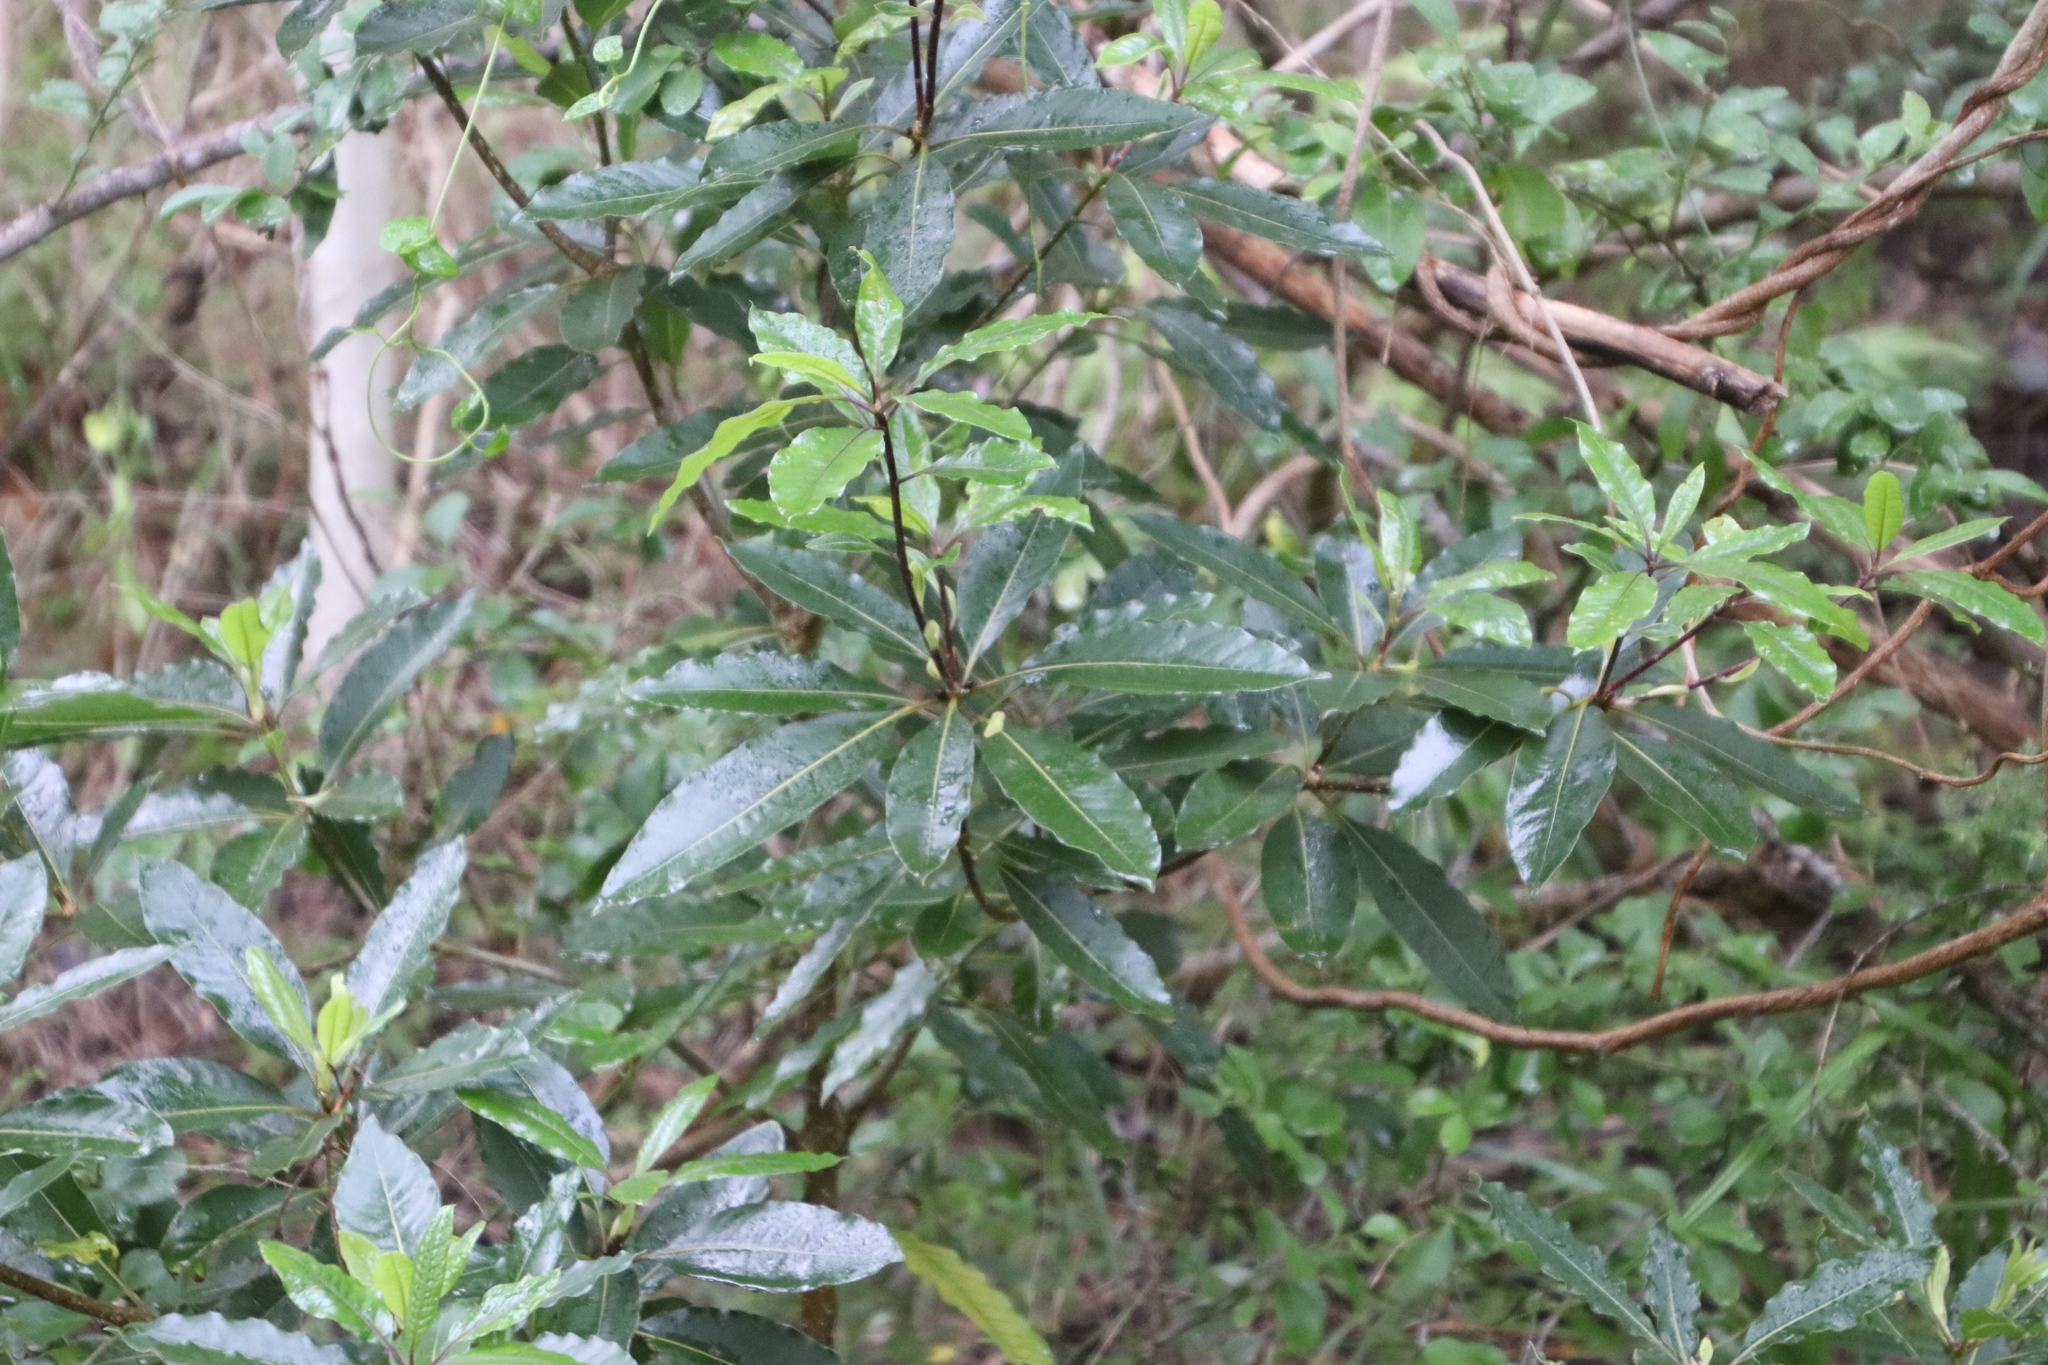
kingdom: Plantae
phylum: Tracheophyta
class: Magnoliopsida
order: Apiales
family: Pittosporaceae
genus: Pittosporum
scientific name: Pittosporum undulatum
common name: Australian cheesewood
